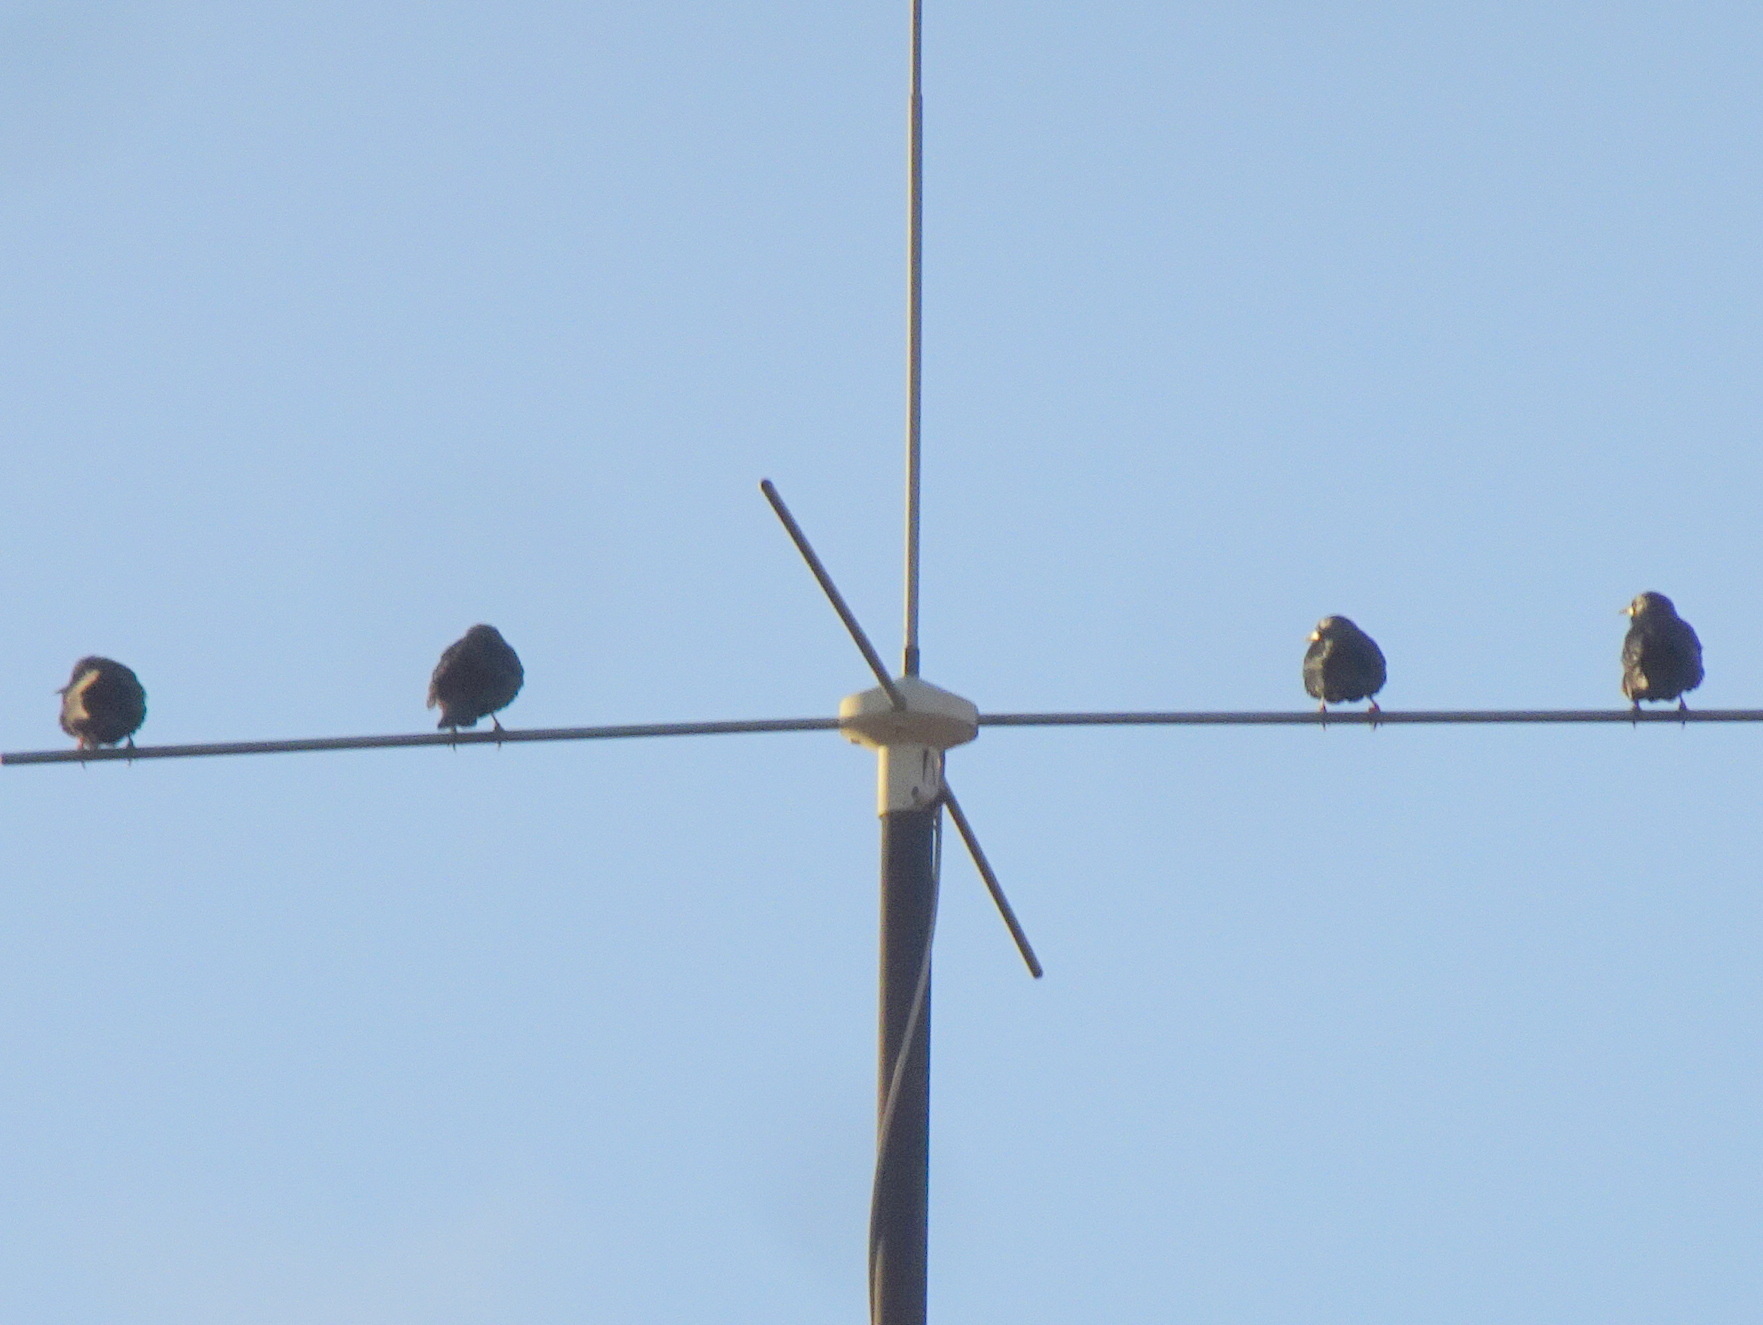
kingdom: Animalia
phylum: Chordata
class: Aves
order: Passeriformes
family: Sturnidae
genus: Sturnus
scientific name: Sturnus unicolor
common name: Spotless starling
